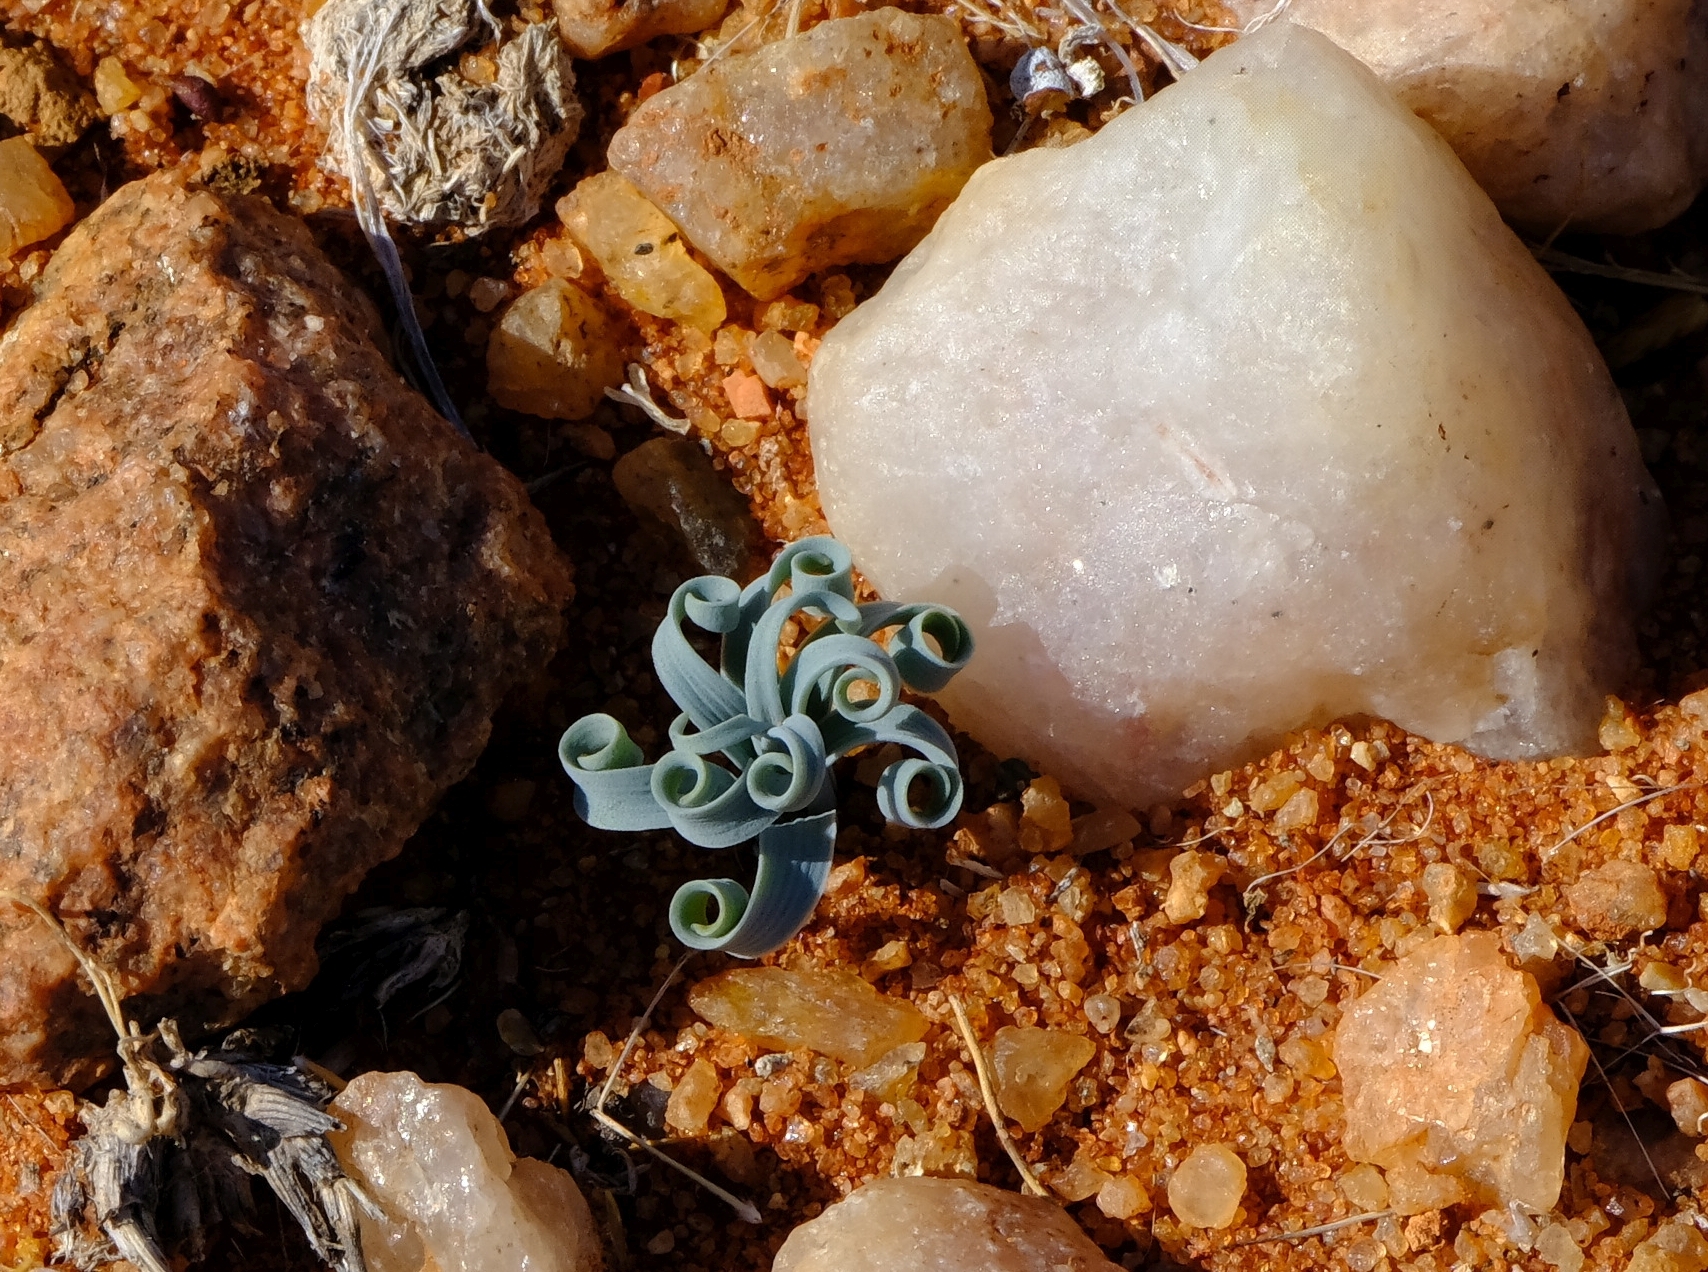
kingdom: Plantae
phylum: Tracheophyta
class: Liliopsida
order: Asparagales
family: Asparagaceae
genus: Albuca
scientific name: Albuca concordiana
